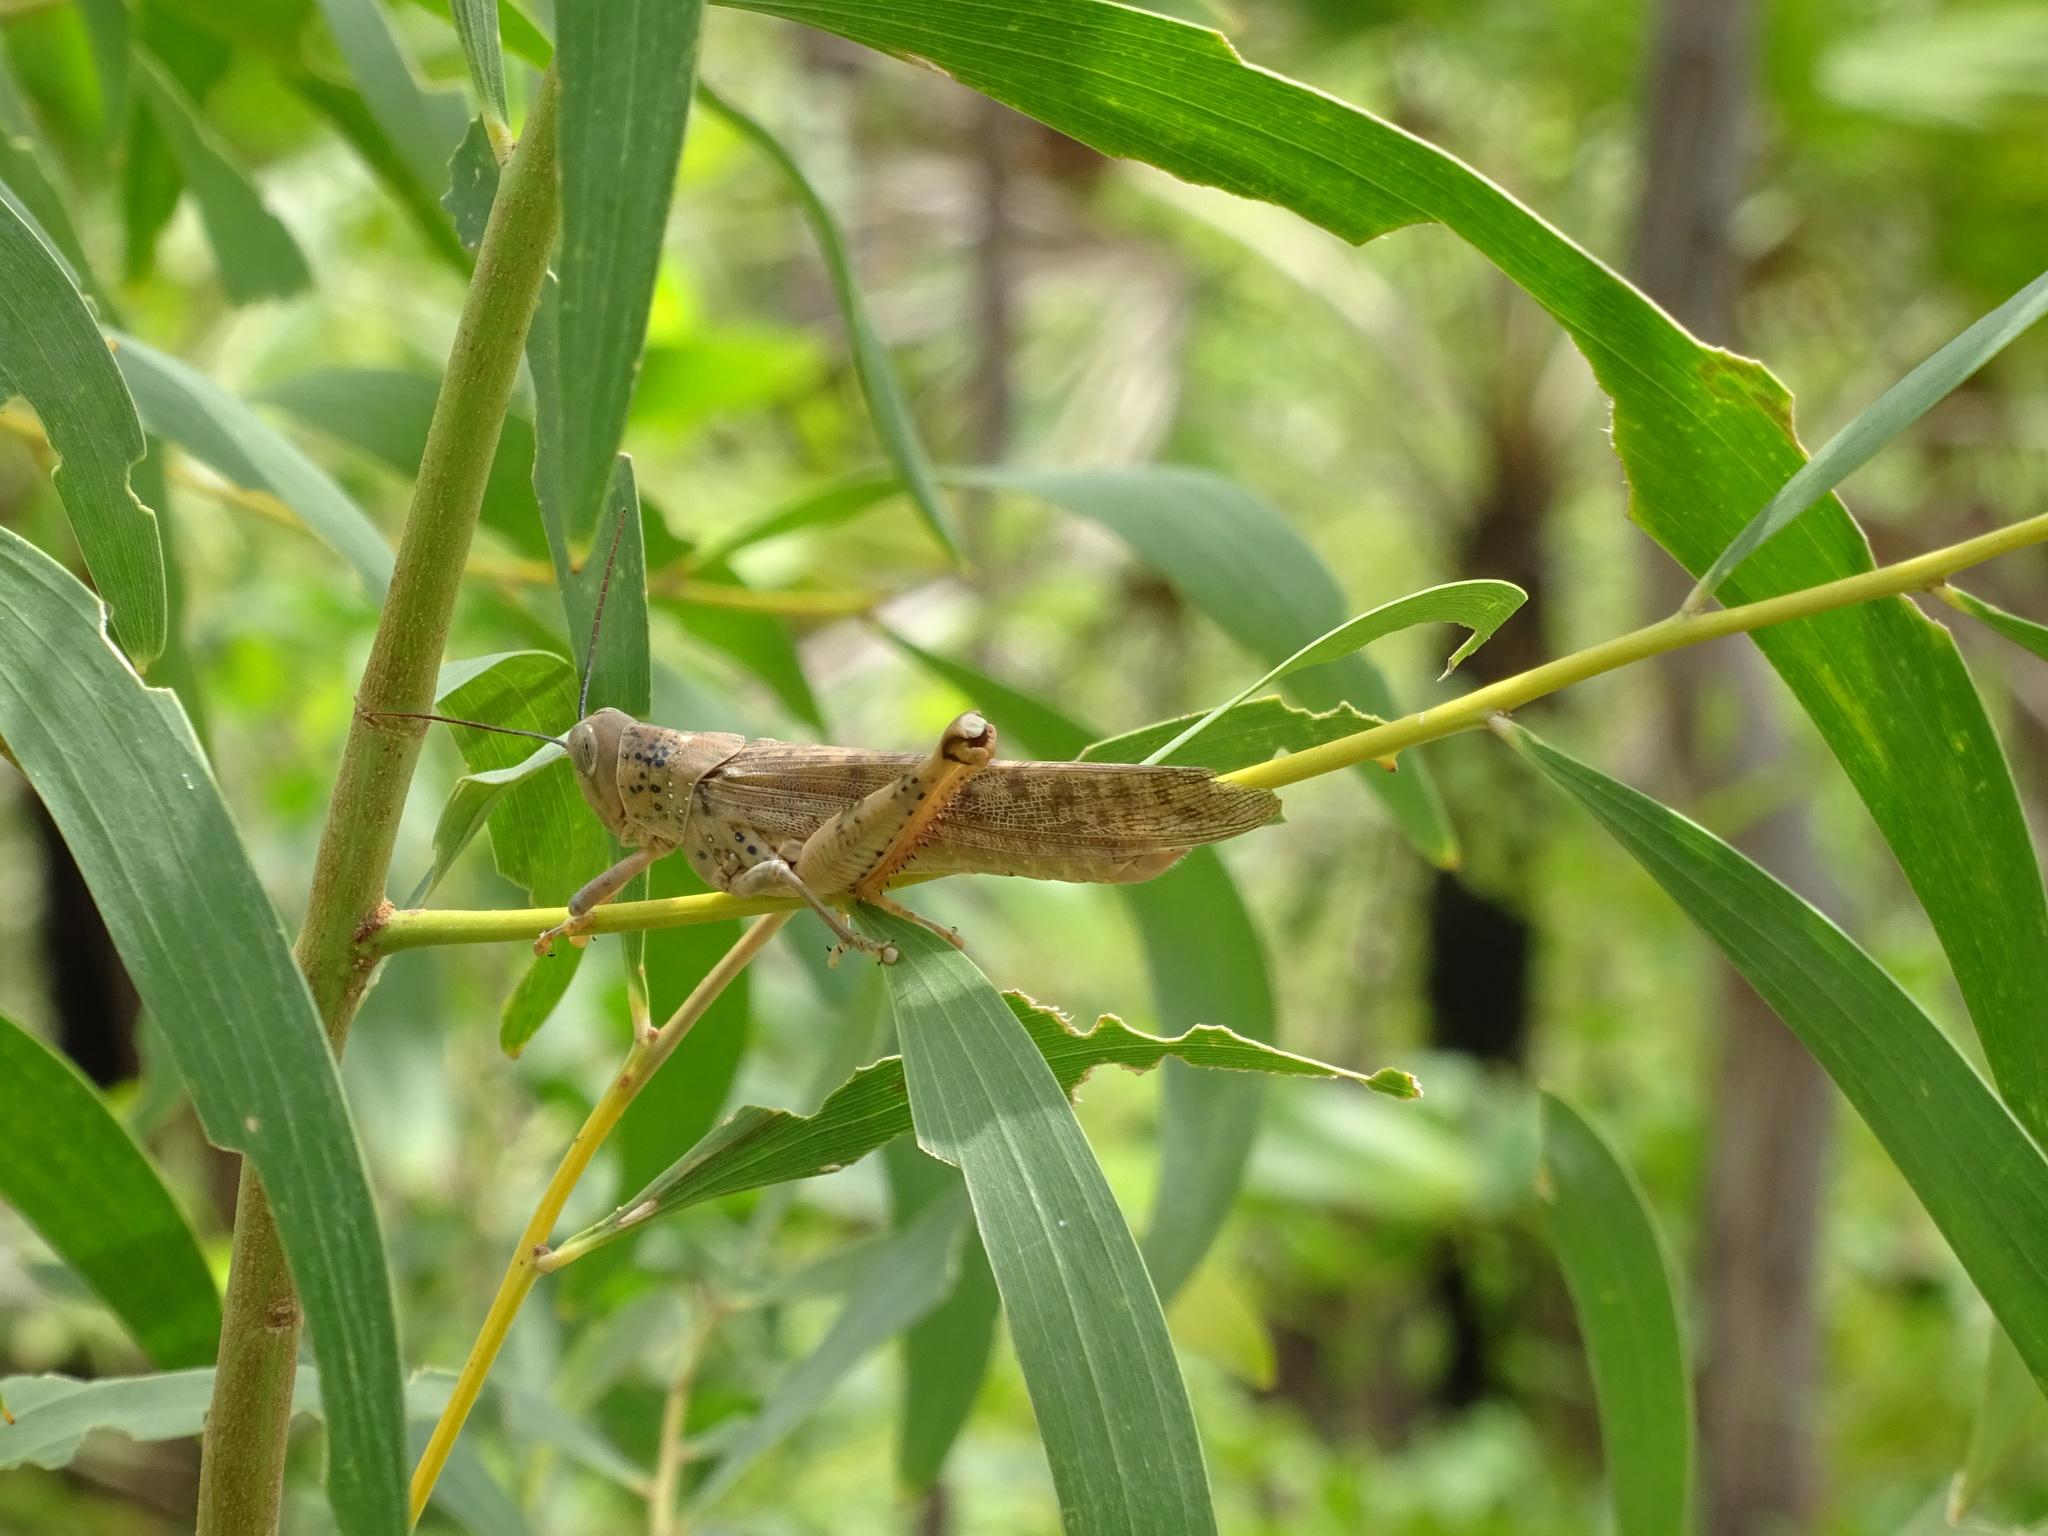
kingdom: Animalia
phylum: Arthropoda
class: Insecta
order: Orthoptera
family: Acrididae
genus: Valanga
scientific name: Valanga irregularis
